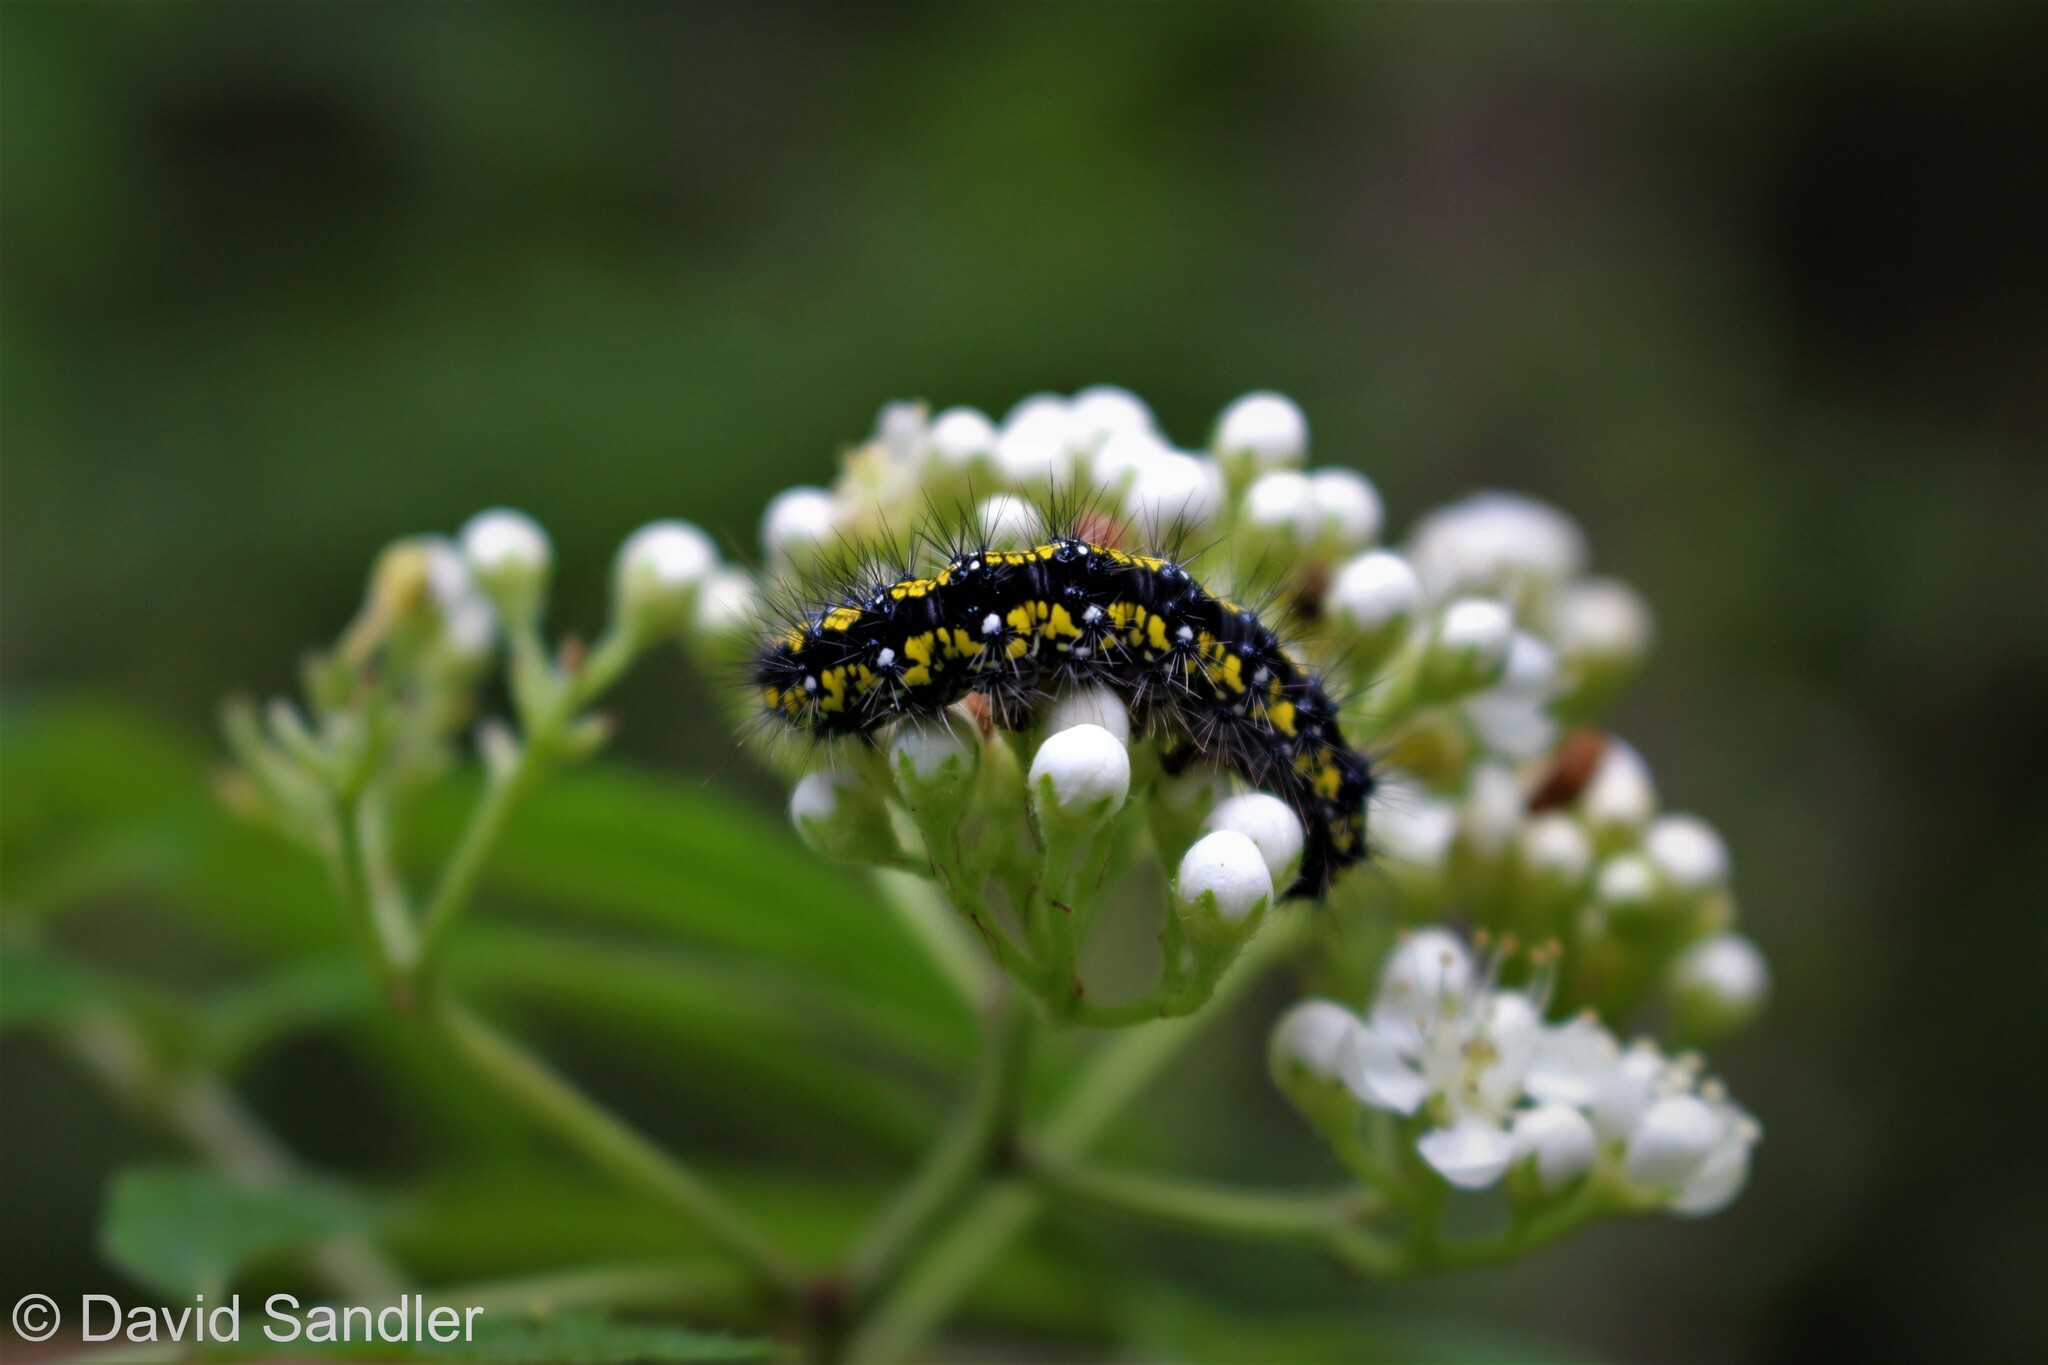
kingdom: Animalia
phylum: Arthropoda
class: Insecta
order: Lepidoptera
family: Erebidae
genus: Callimorpha
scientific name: Callimorpha dominula
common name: Scarlet tiger
